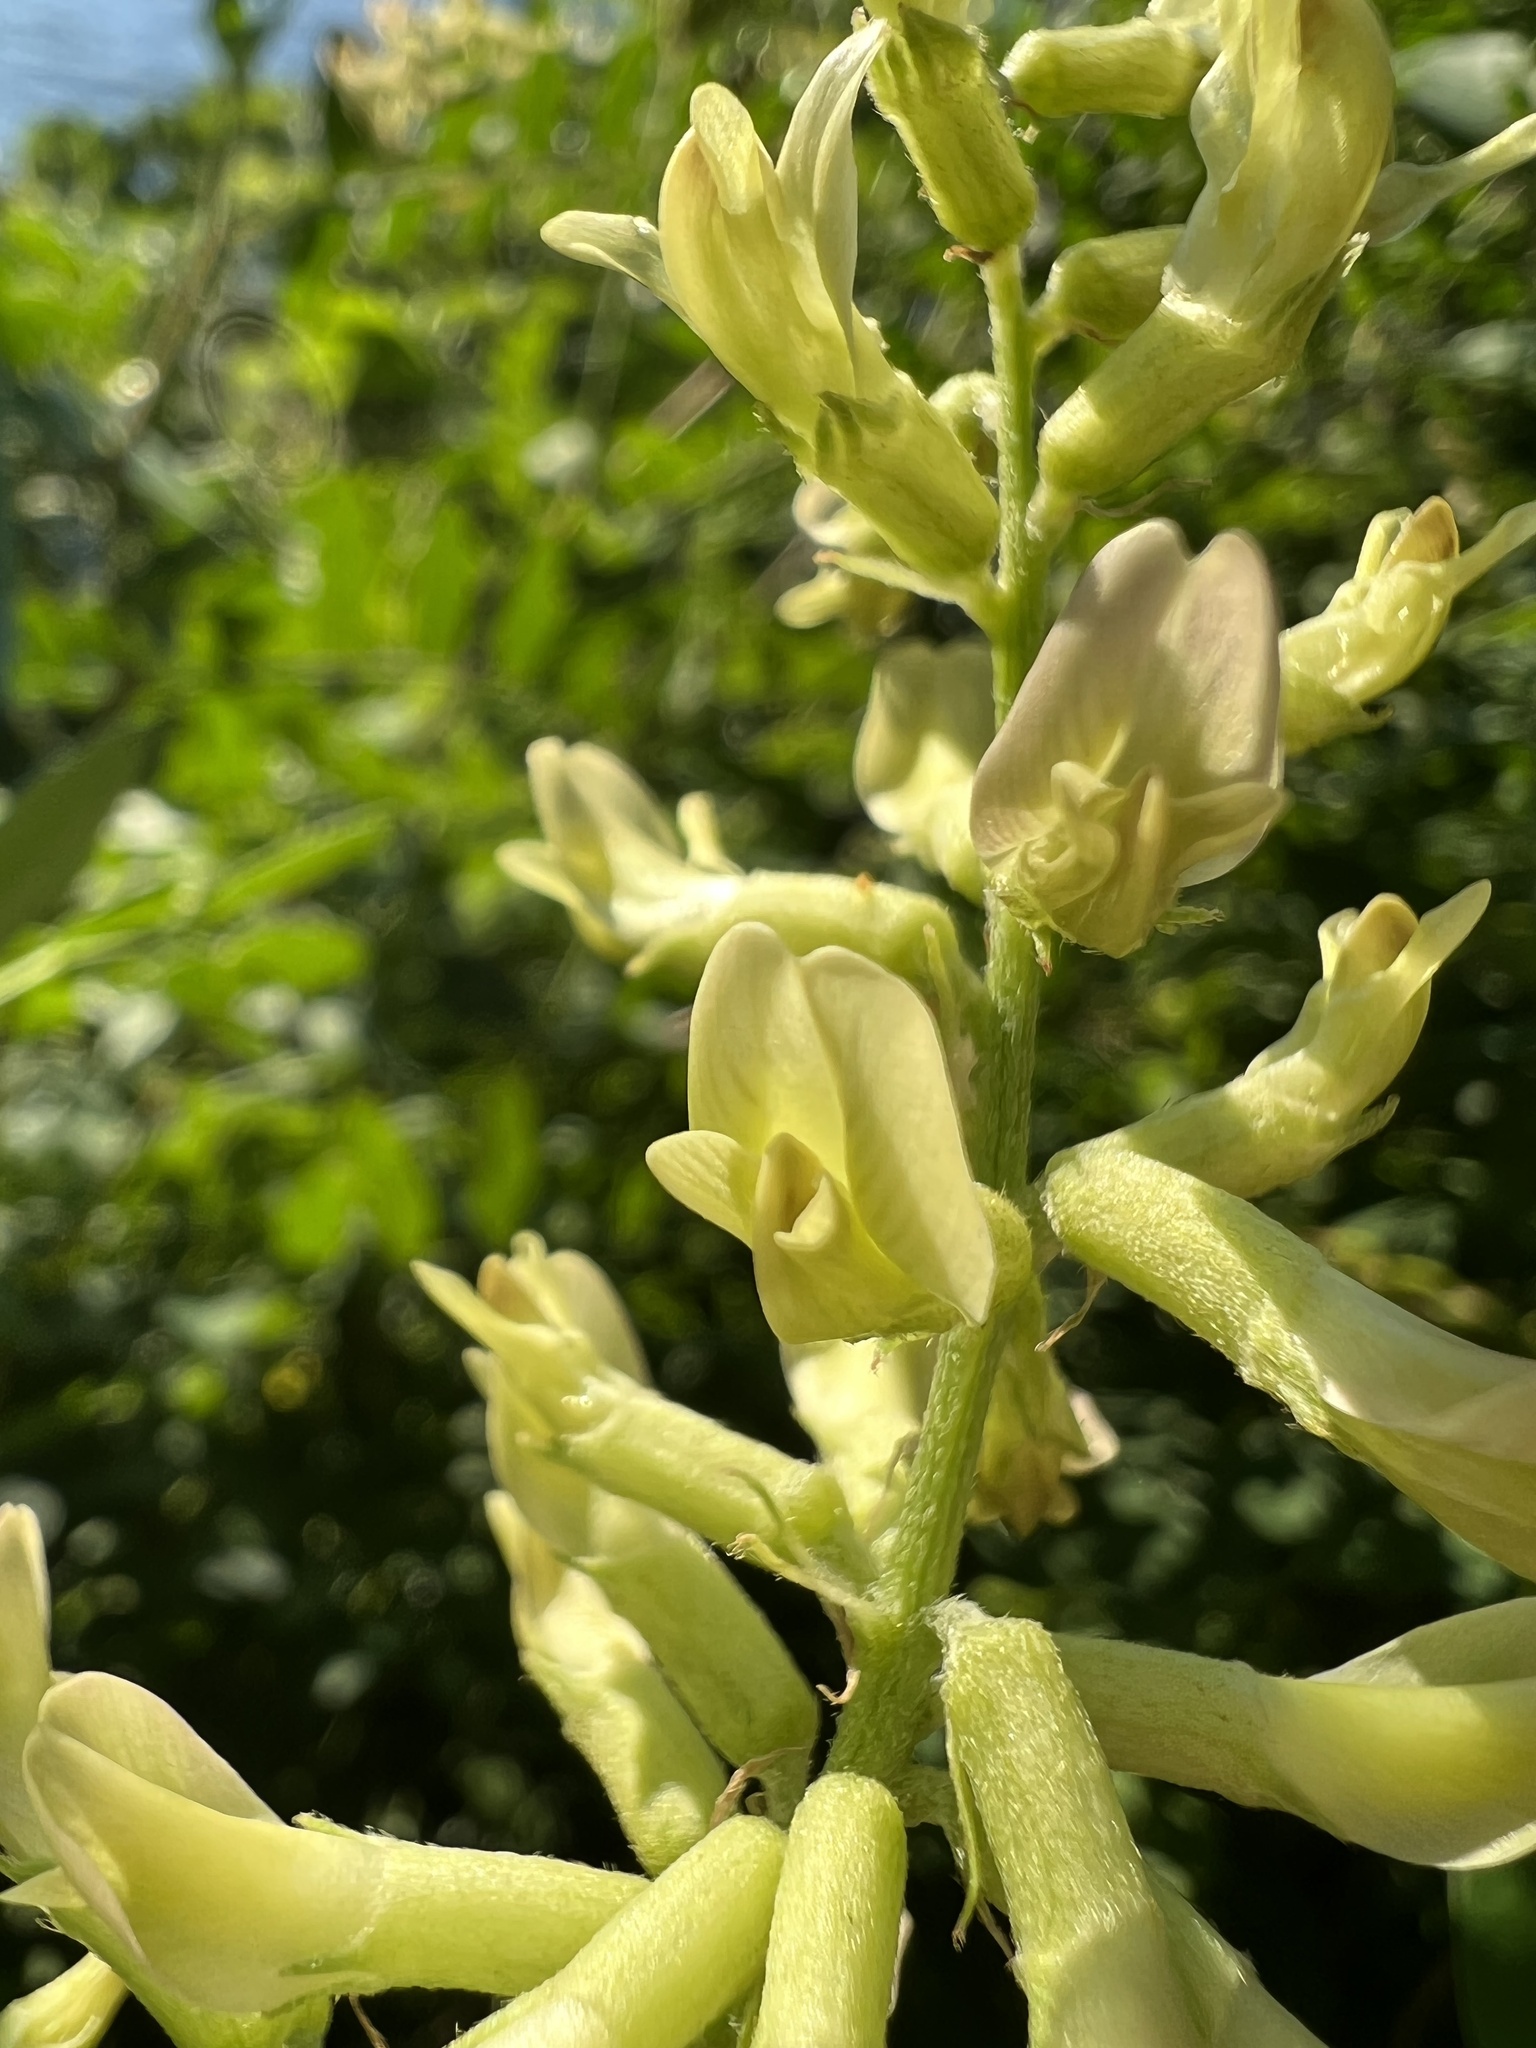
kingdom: Plantae
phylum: Tracheophyta
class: Magnoliopsida
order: Fabales
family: Fabaceae
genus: Astragalus
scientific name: Astragalus canadensis
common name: Canada milk-vetch
